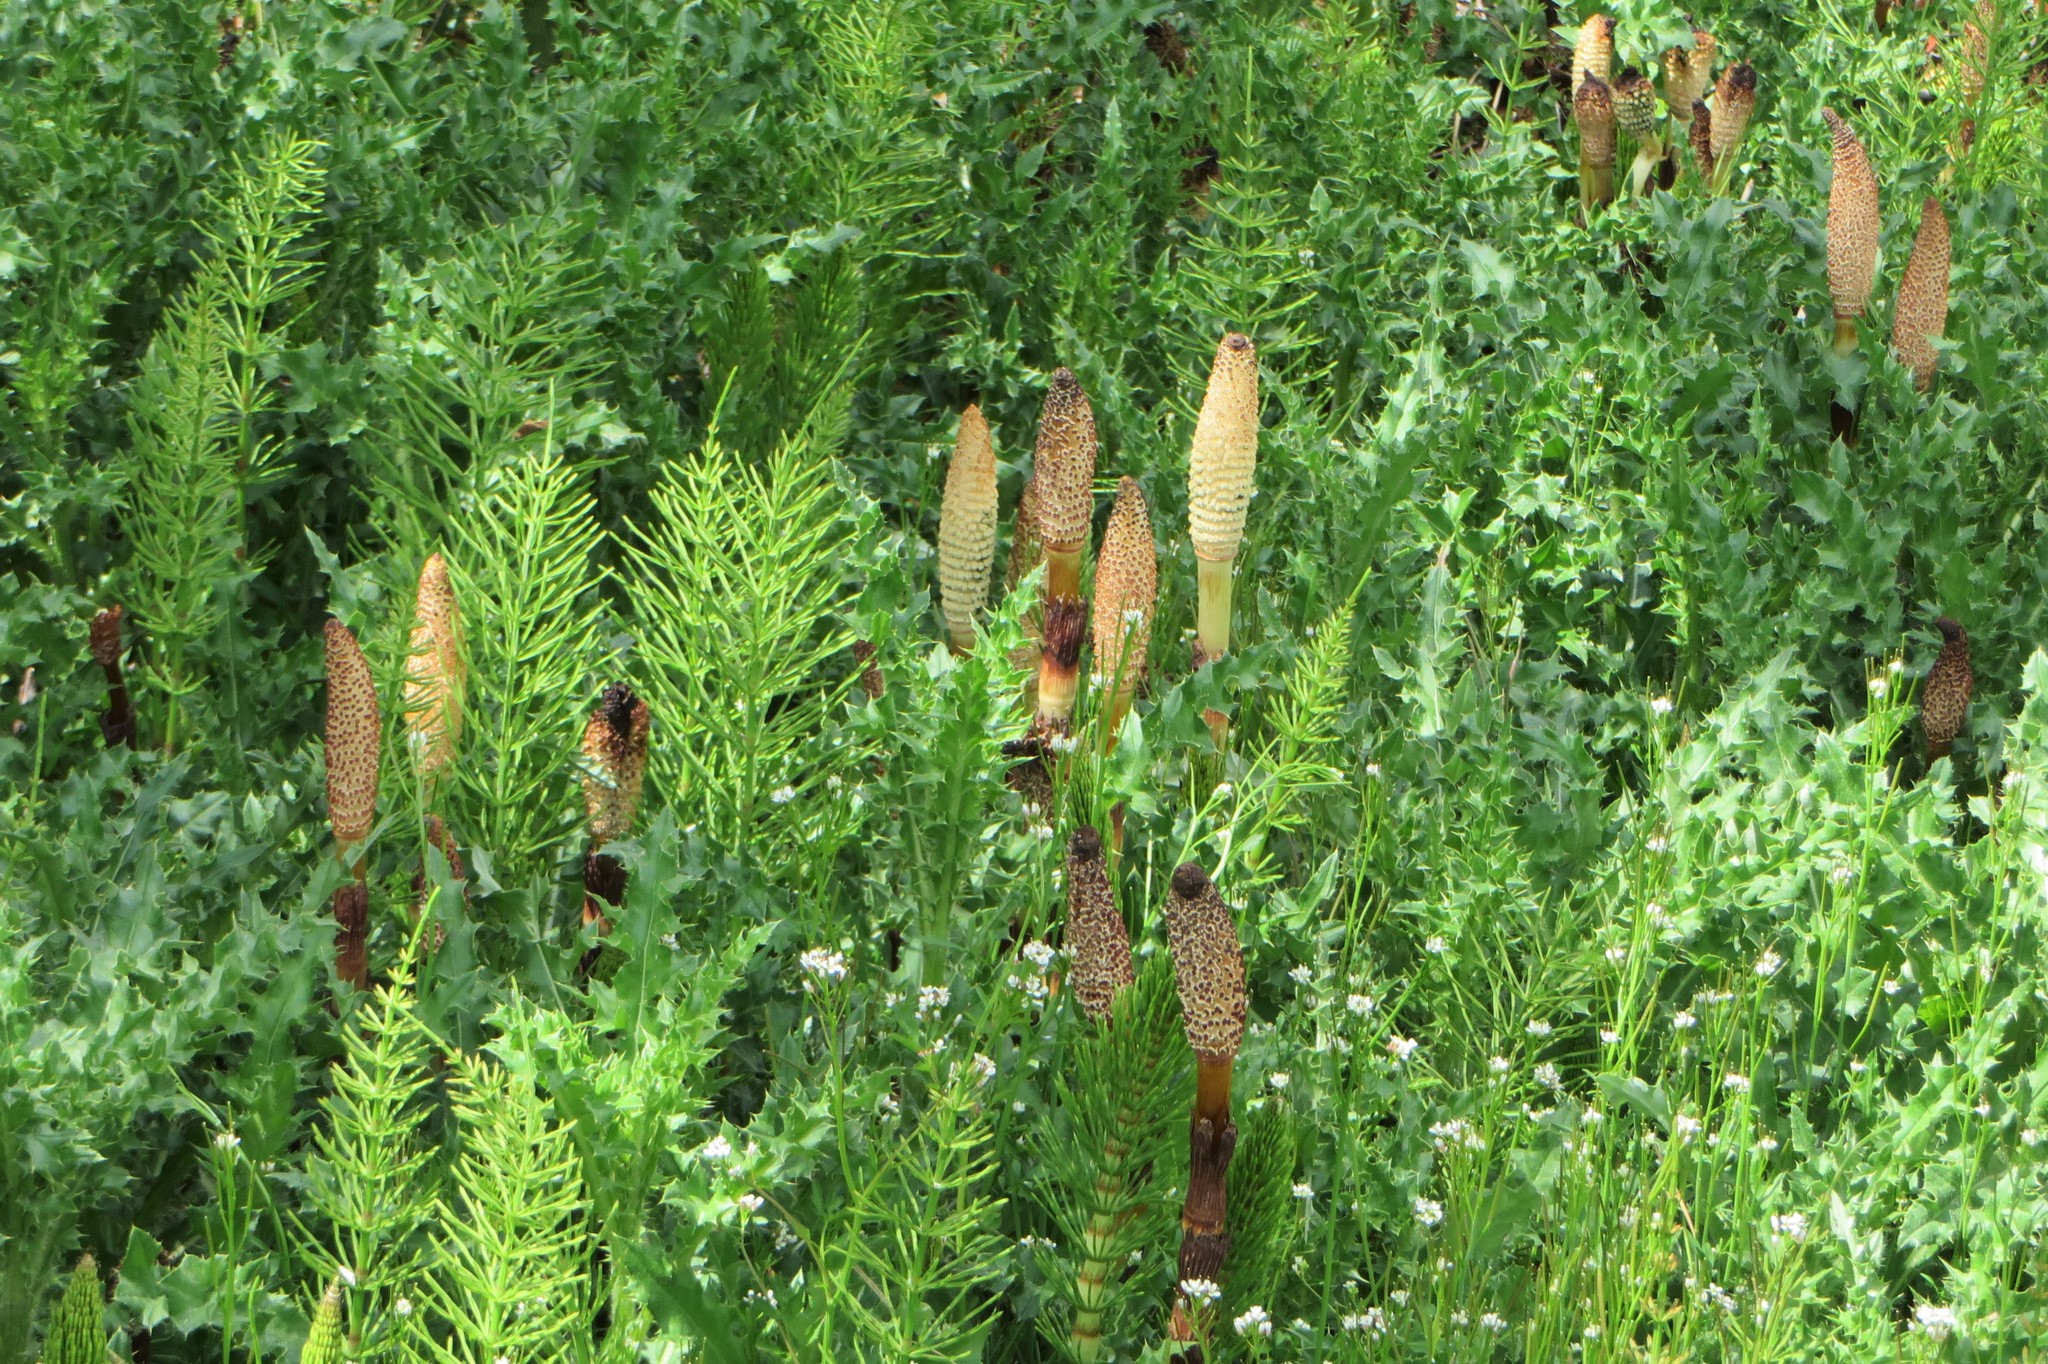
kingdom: Plantae
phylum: Tracheophyta
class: Polypodiopsida
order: Equisetales
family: Equisetaceae
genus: Equisetum
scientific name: Equisetum telmateia
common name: Great horsetail
